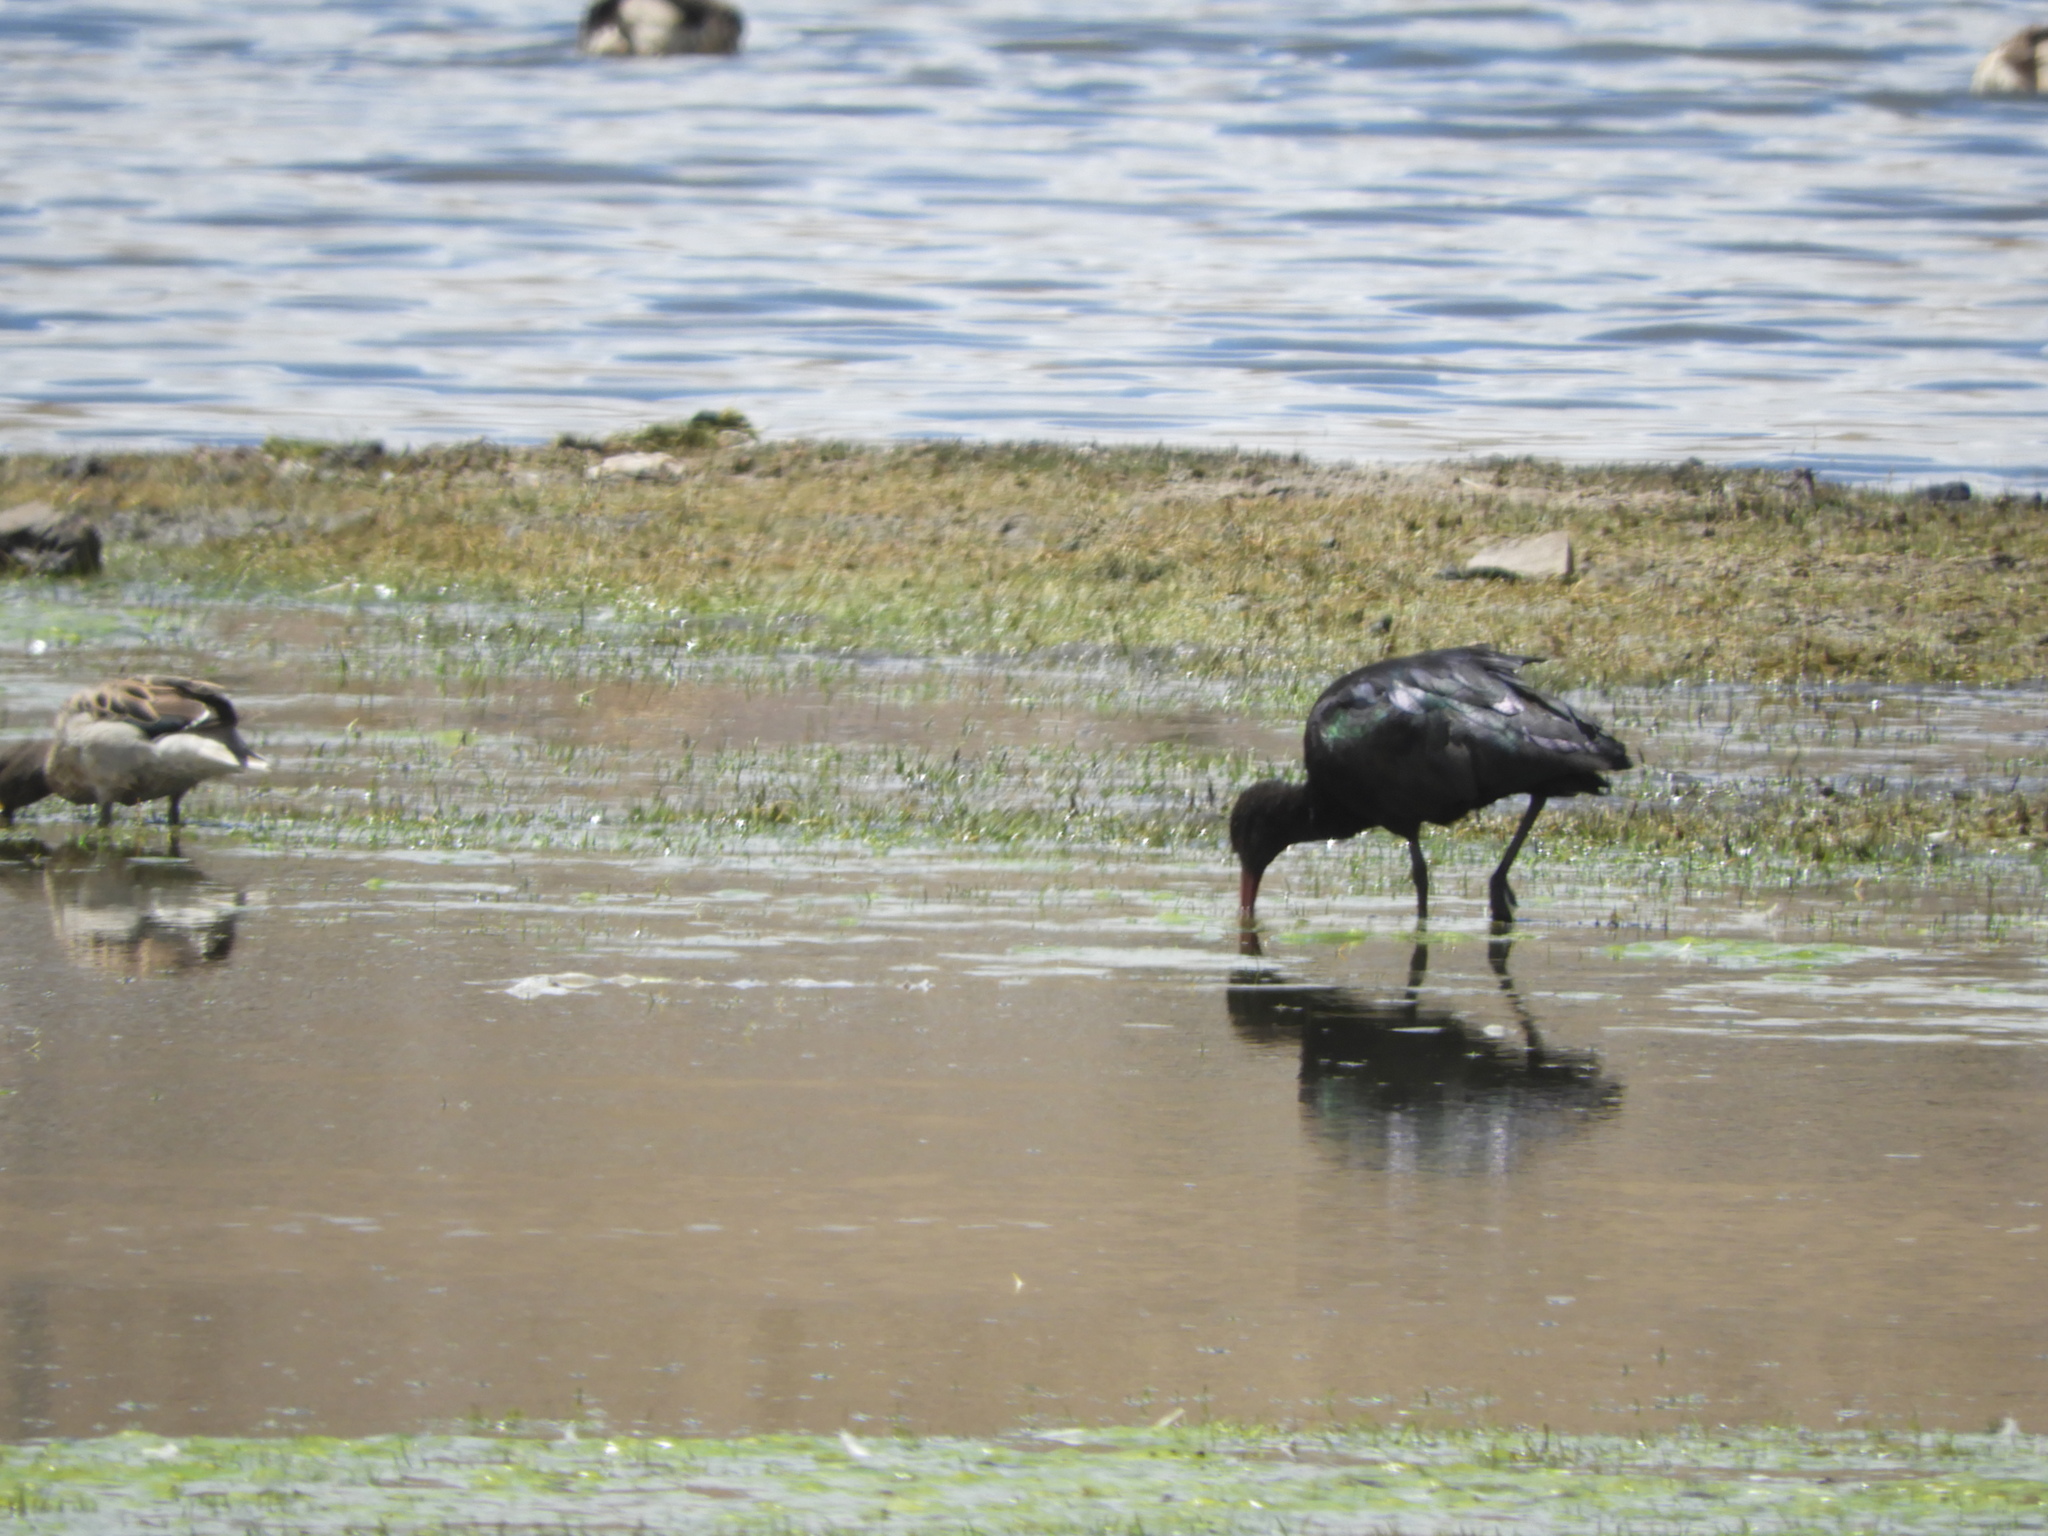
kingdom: Animalia
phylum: Chordata
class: Aves
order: Pelecaniformes
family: Threskiornithidae
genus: Plegadis
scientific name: Plegadis ridgwayi
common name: Puna ibis
